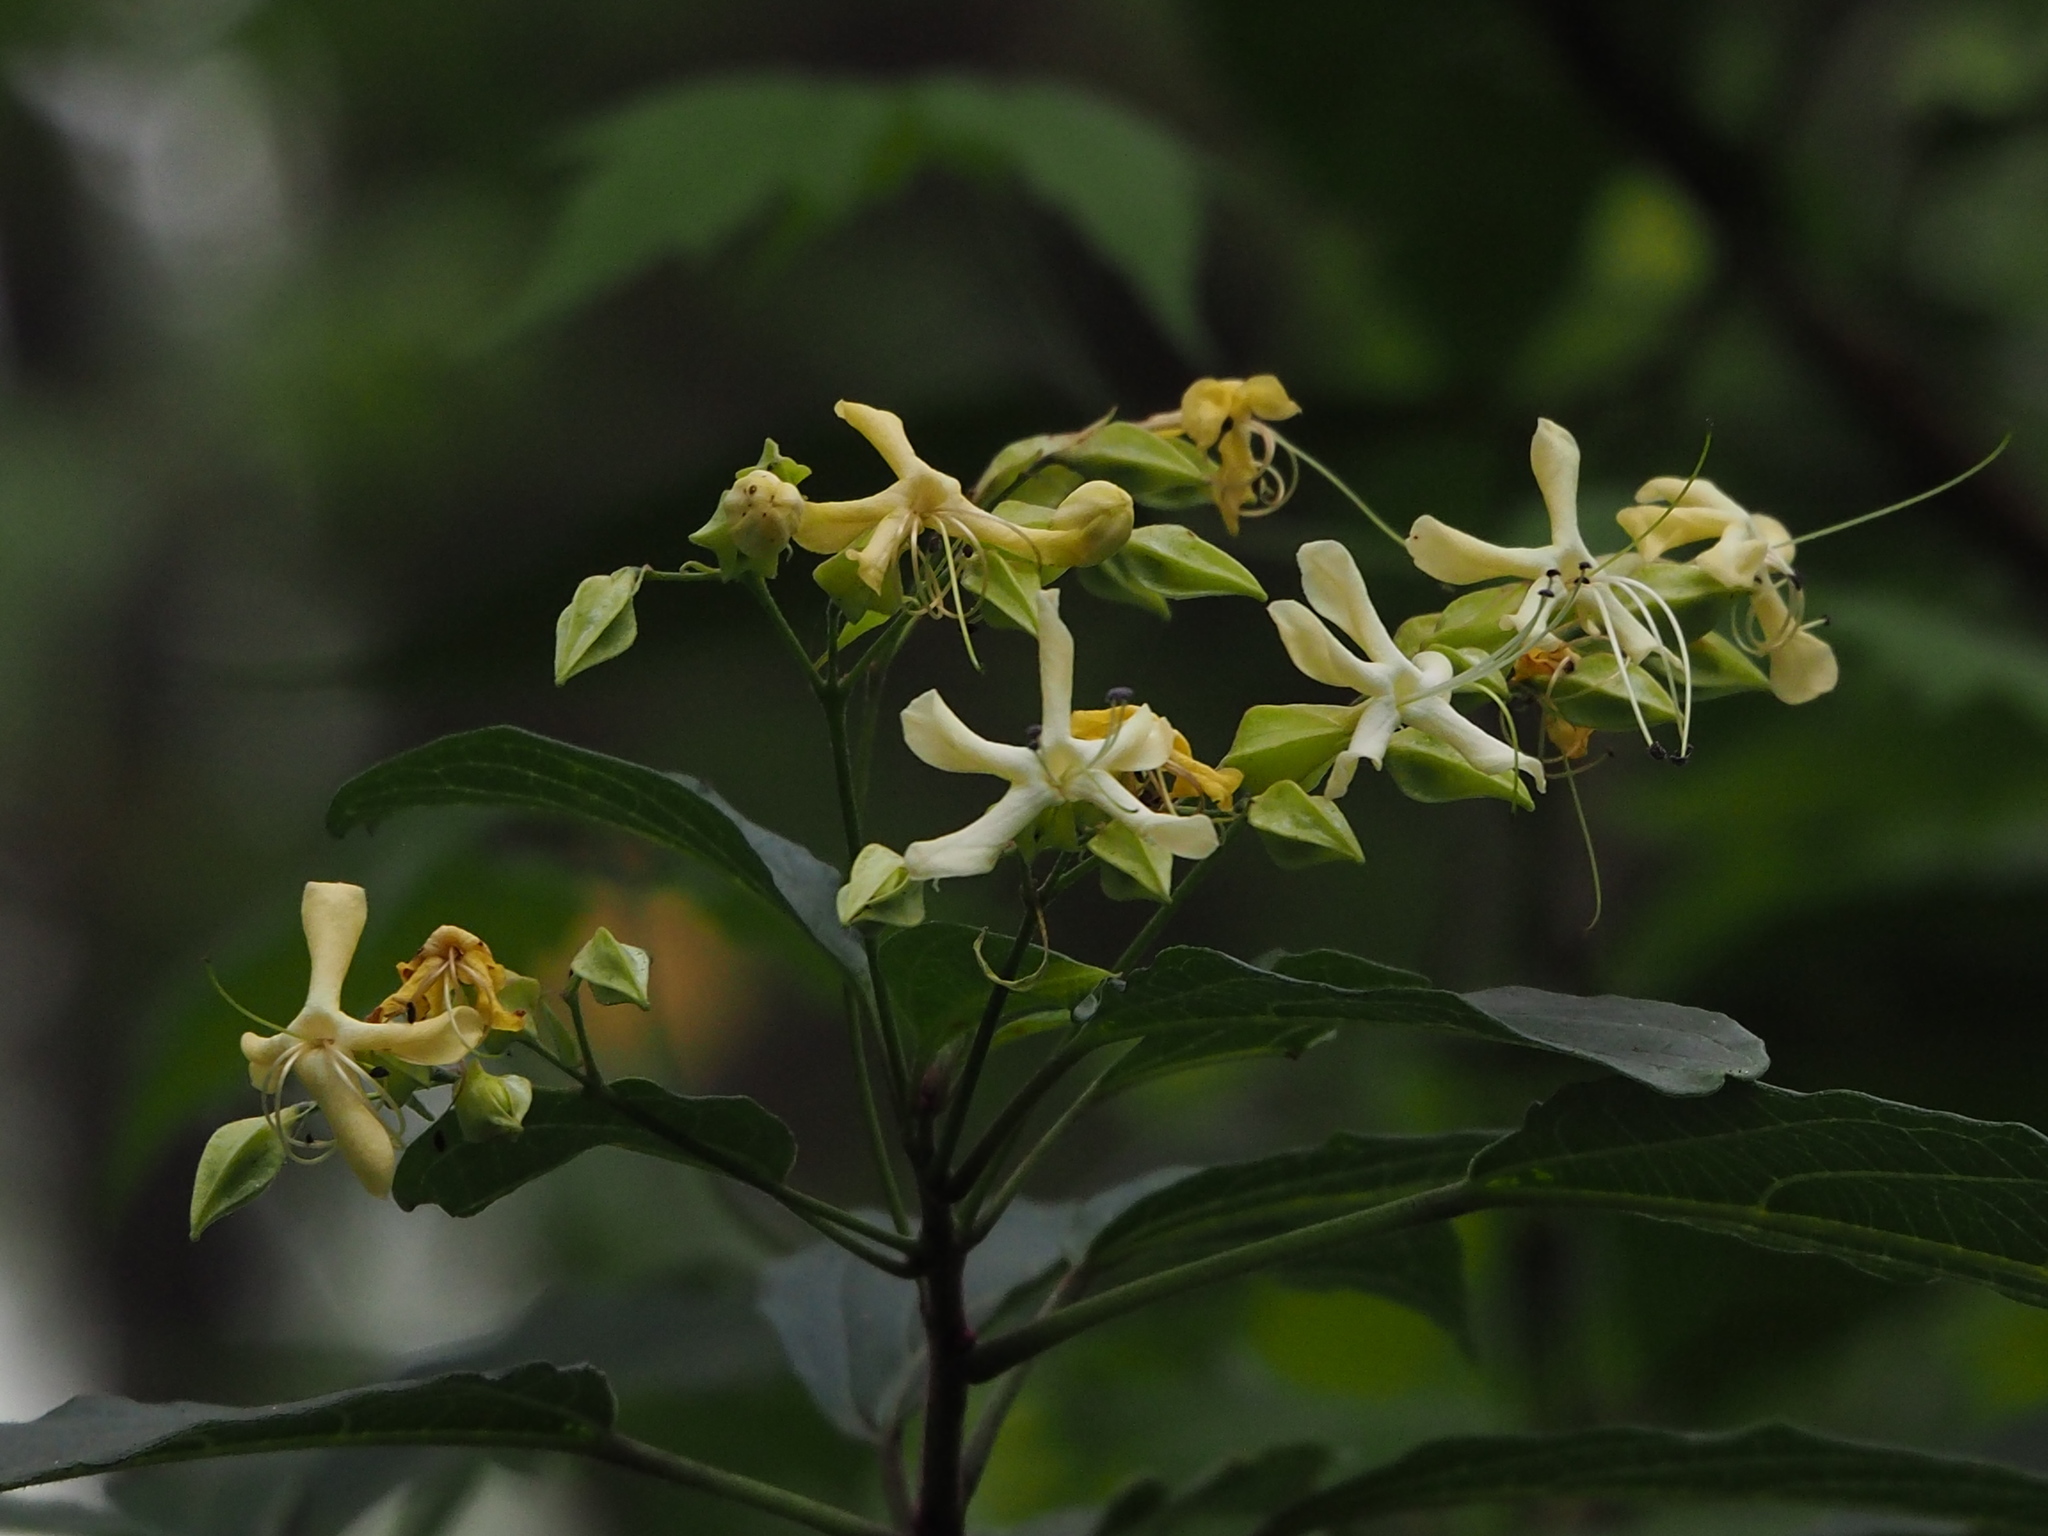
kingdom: Plantae
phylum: Tracheophyta
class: Magnoliopsida
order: Lamiales
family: Lamiaceae
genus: Clerodendrum
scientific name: Clerodendrum trichotomum
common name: Harlequin glorybower
